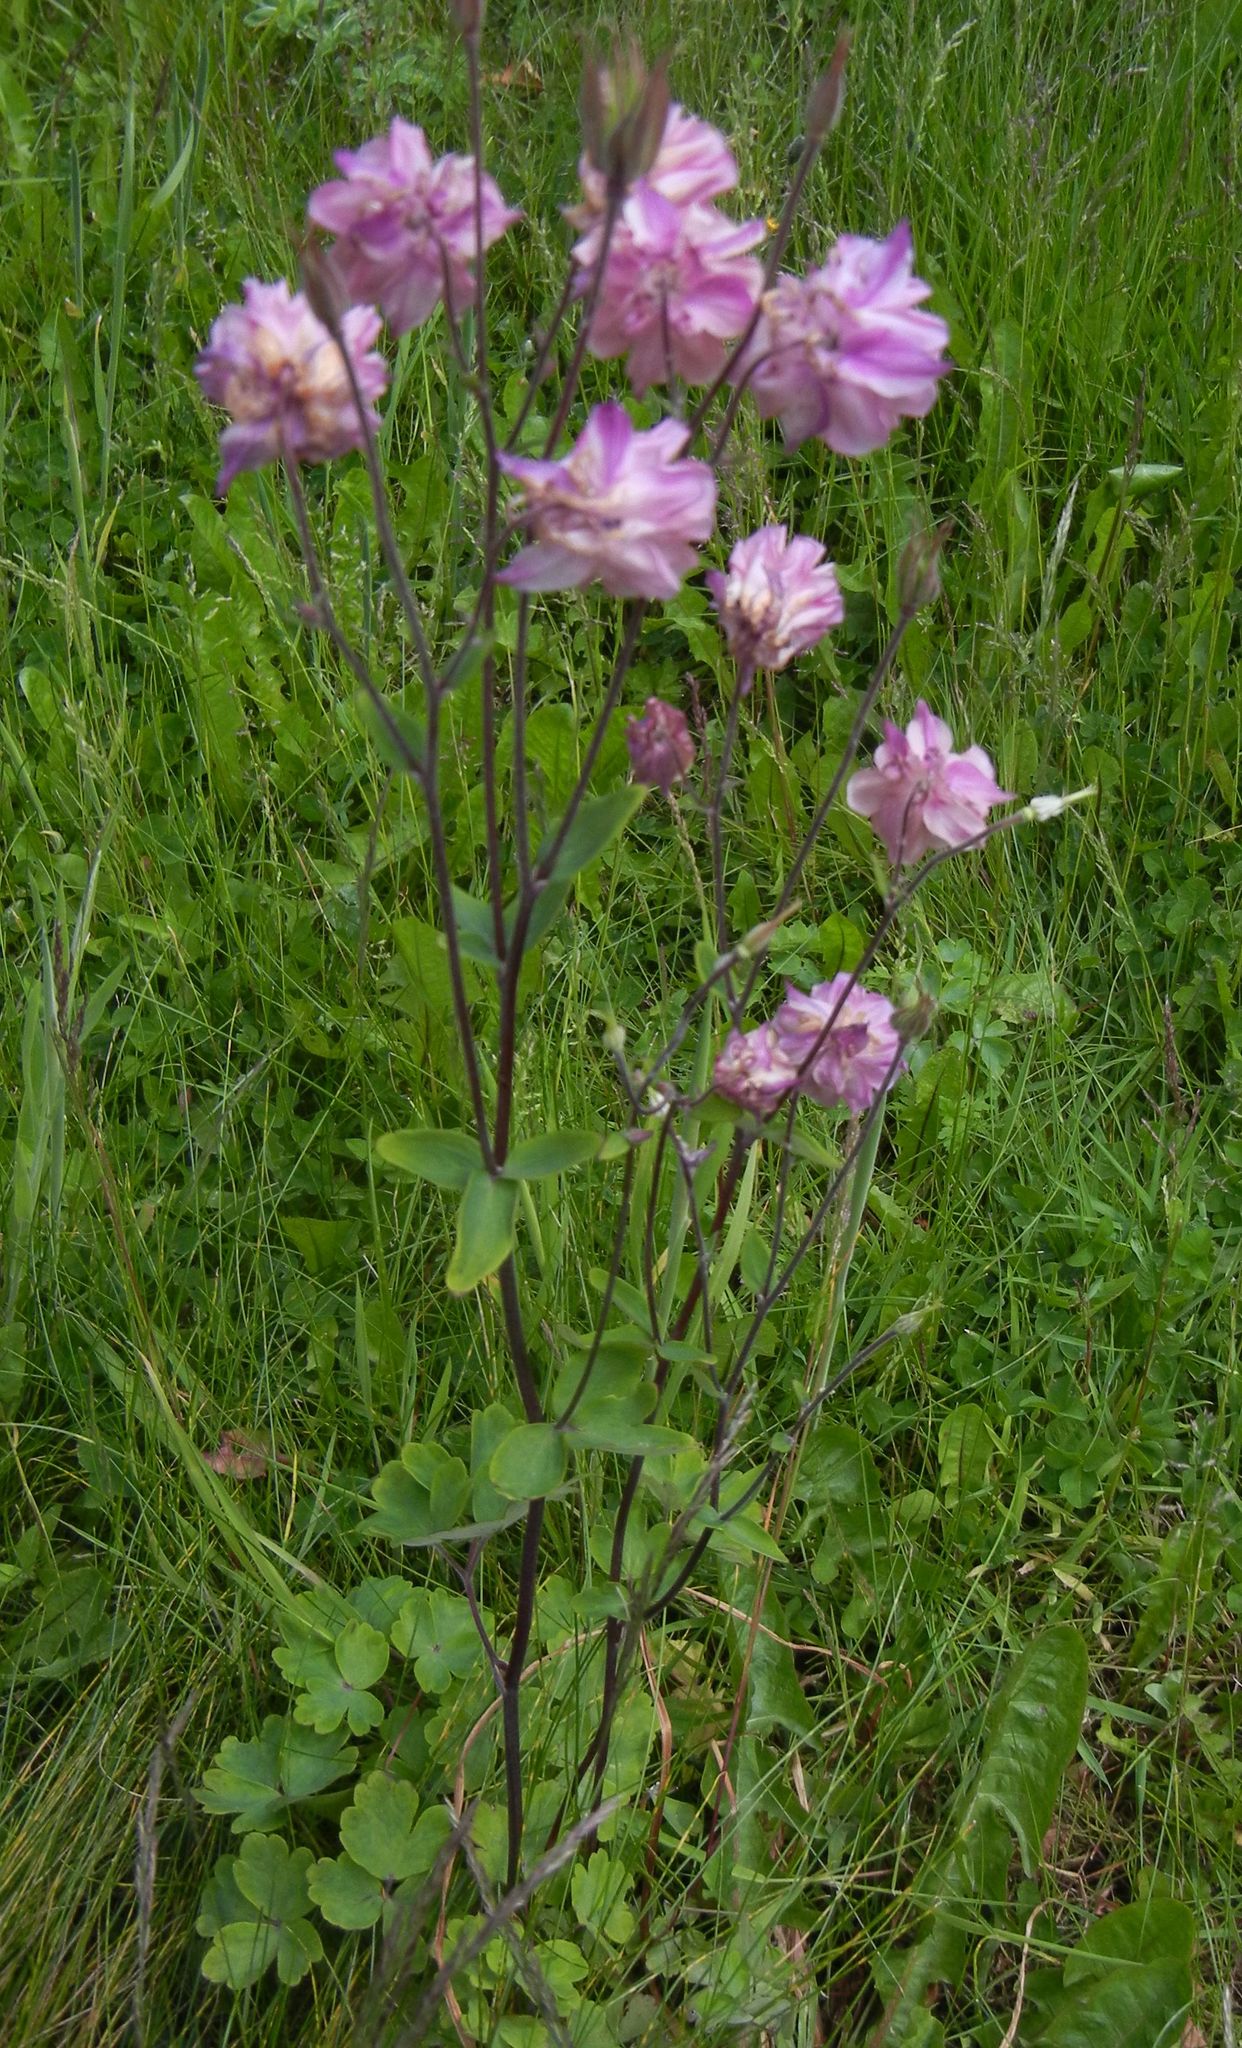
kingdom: Plantae
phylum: Tracheophyta
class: Magnoliopsida
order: Ranunculales
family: Ranunculaceae
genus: Aquilegia
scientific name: Aquilegia vulgaris
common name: Columbine
